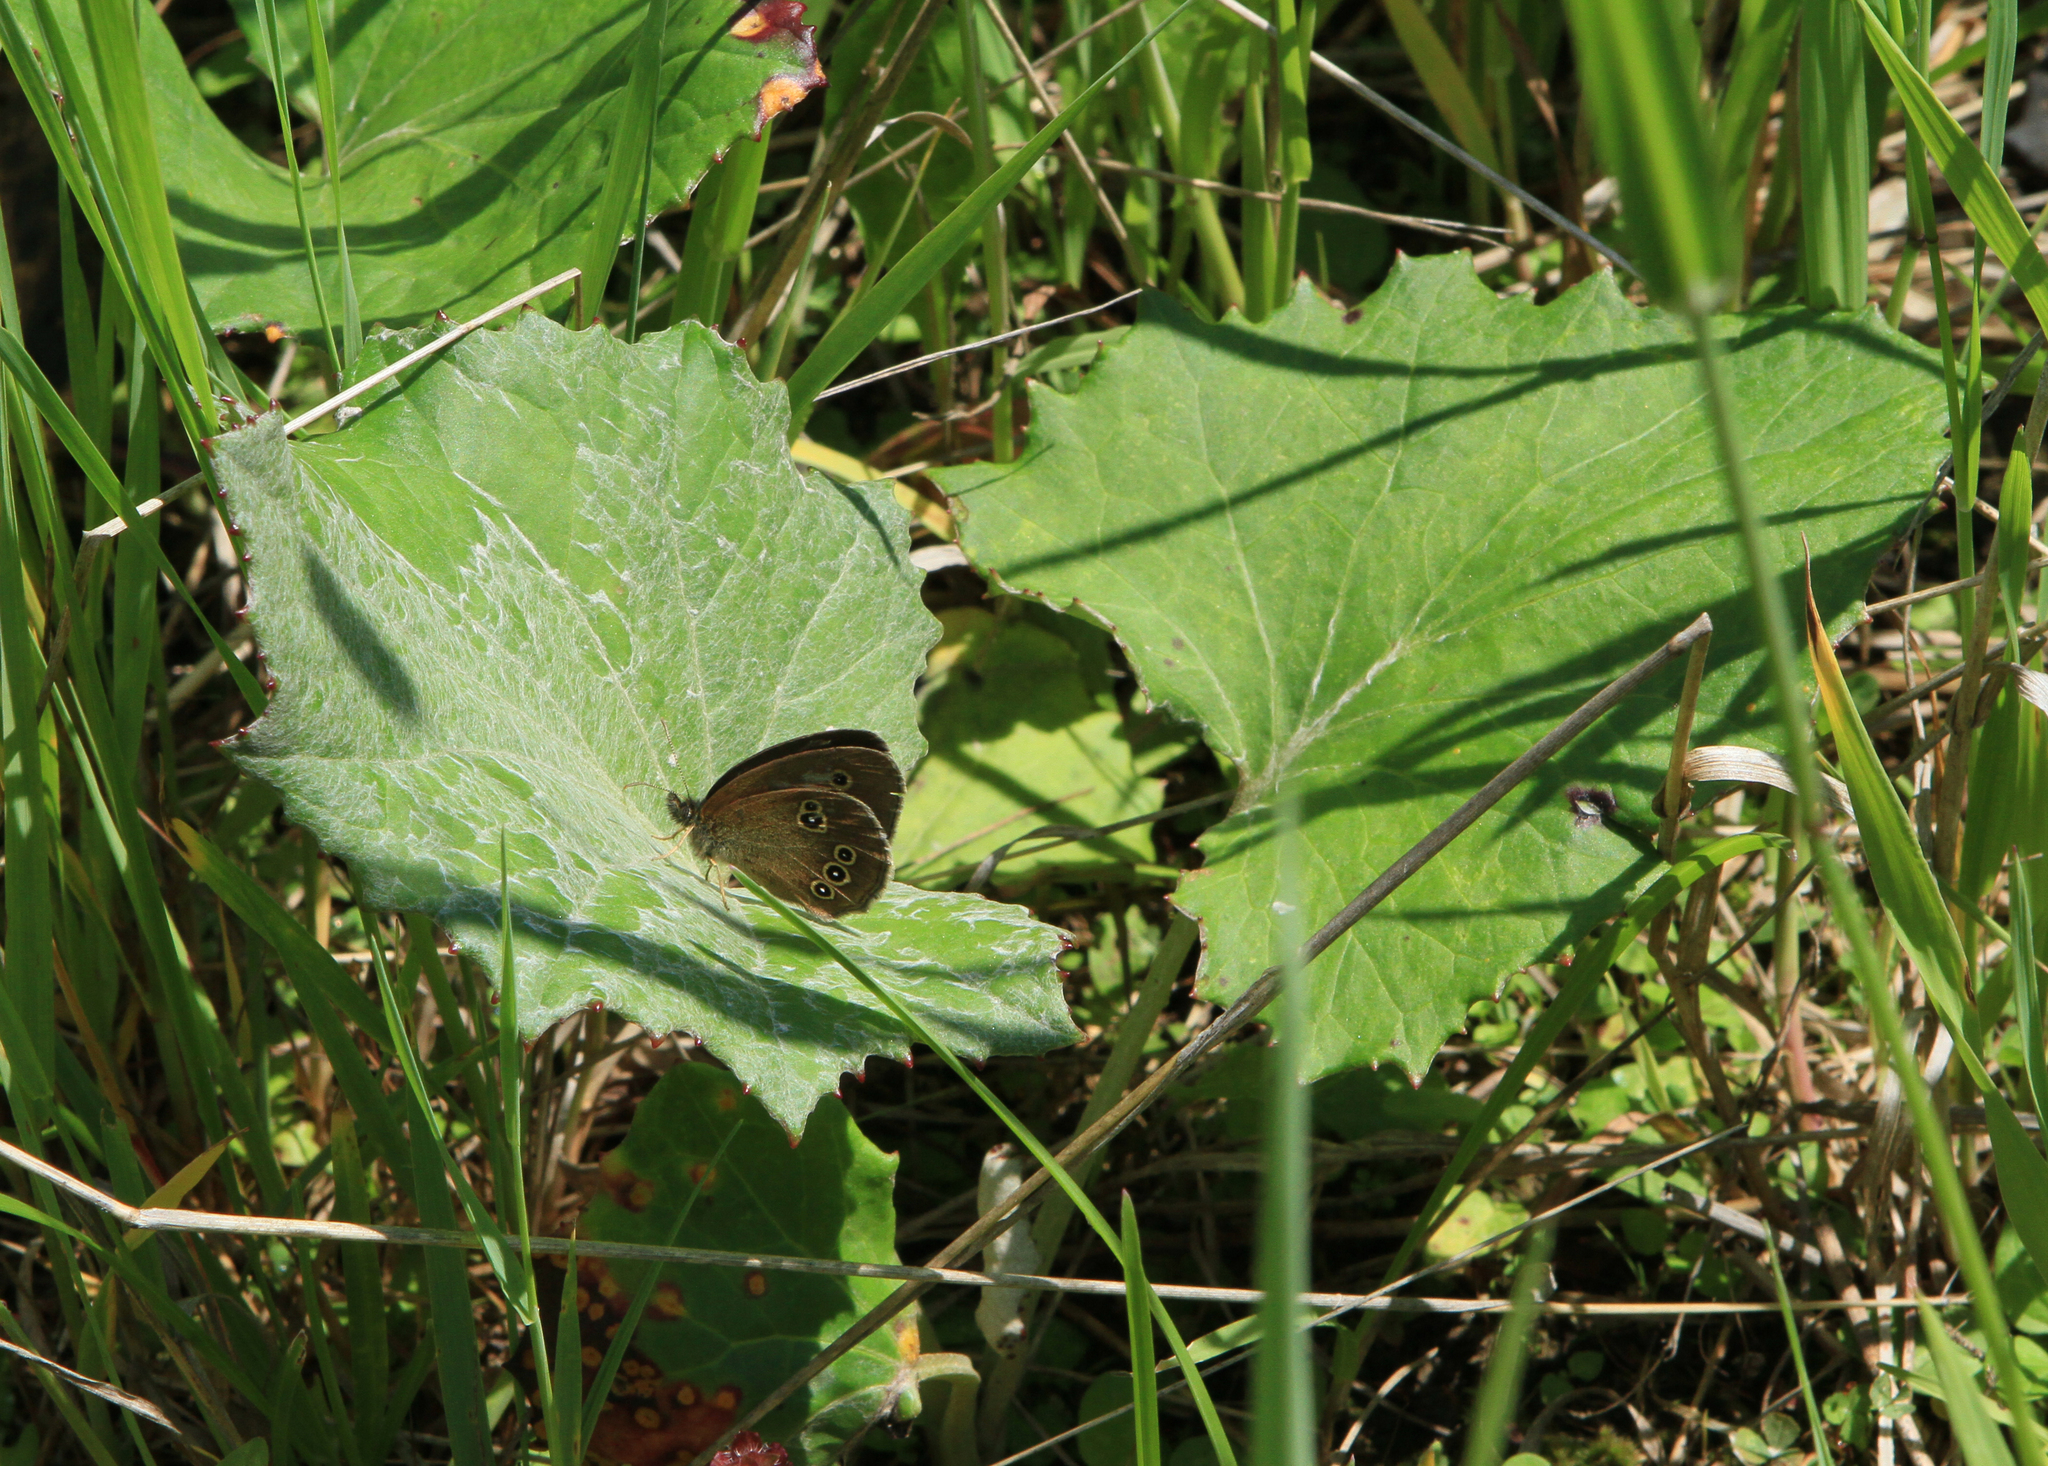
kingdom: Plantae
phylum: Tracheophyta
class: Magnoliopsida
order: Asterales
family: Asteraceae
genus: Tussilago
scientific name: Tussilago farfara
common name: Coltsfoot
